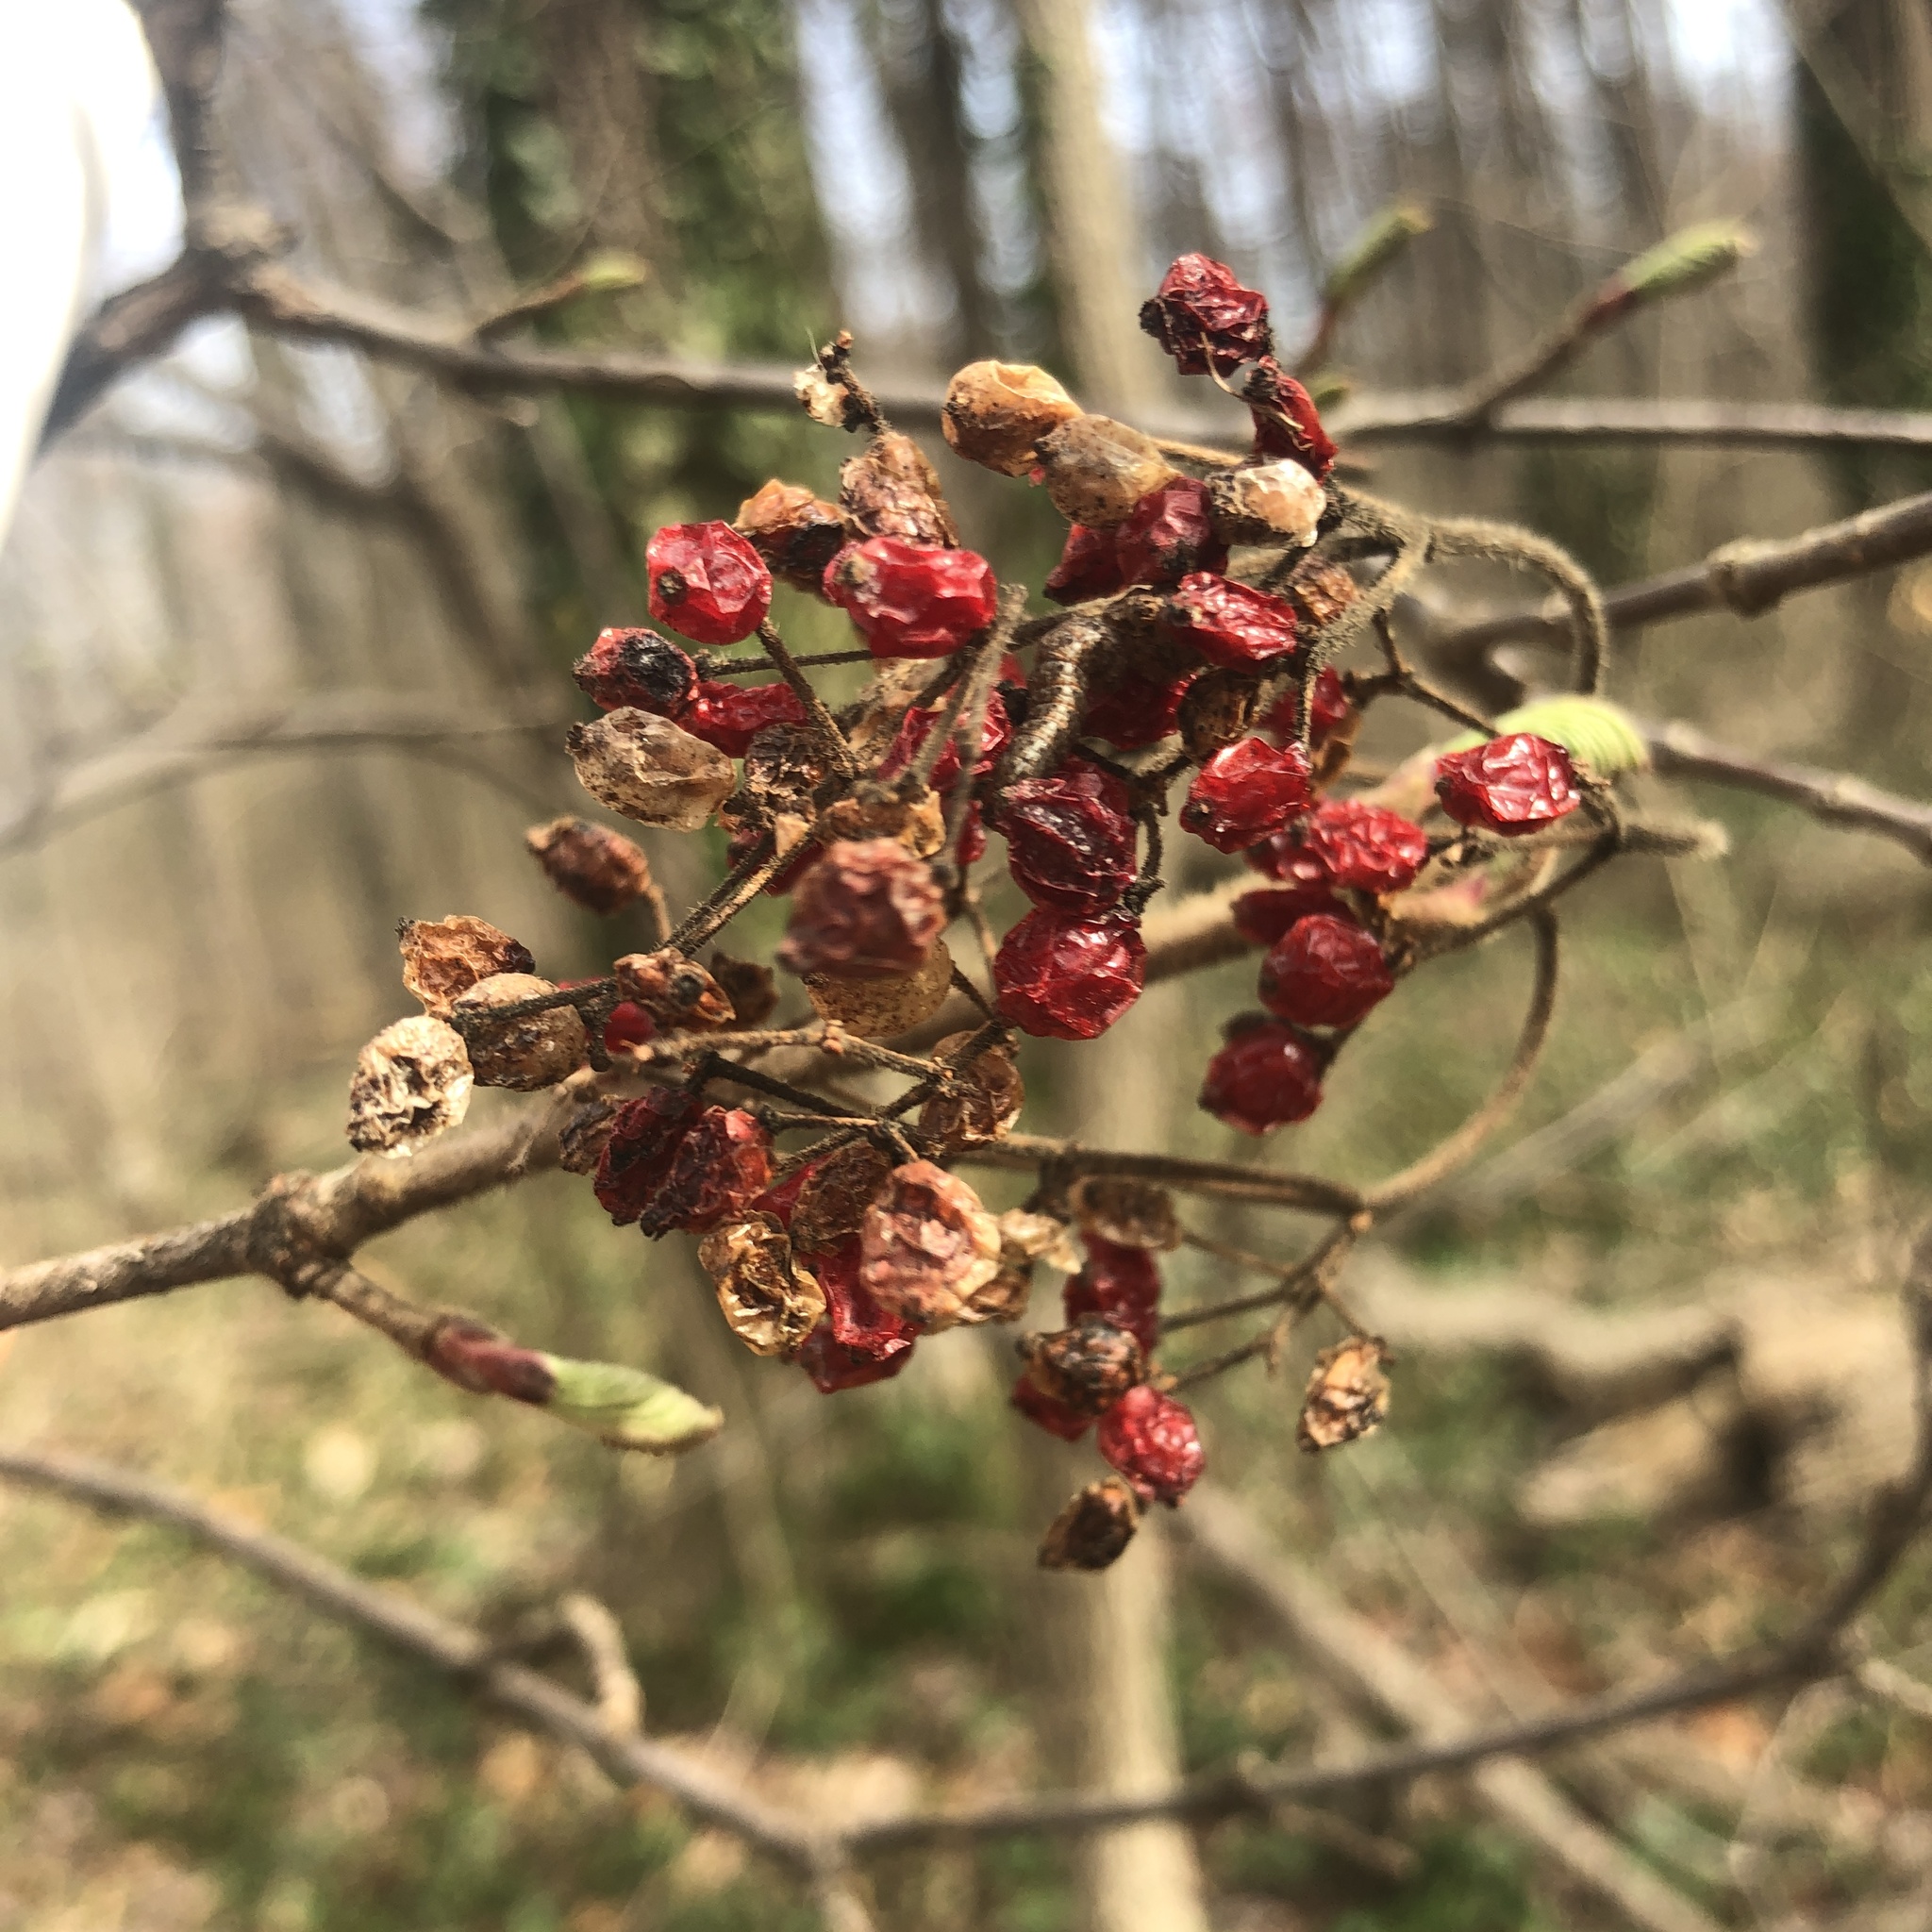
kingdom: Plantae
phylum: Tracheophyta
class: Magnoliopsida
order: Dipsacales
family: Viburnaceae
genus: Viburnum
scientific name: Viburnum dilatatum
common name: Linden arrowwood
